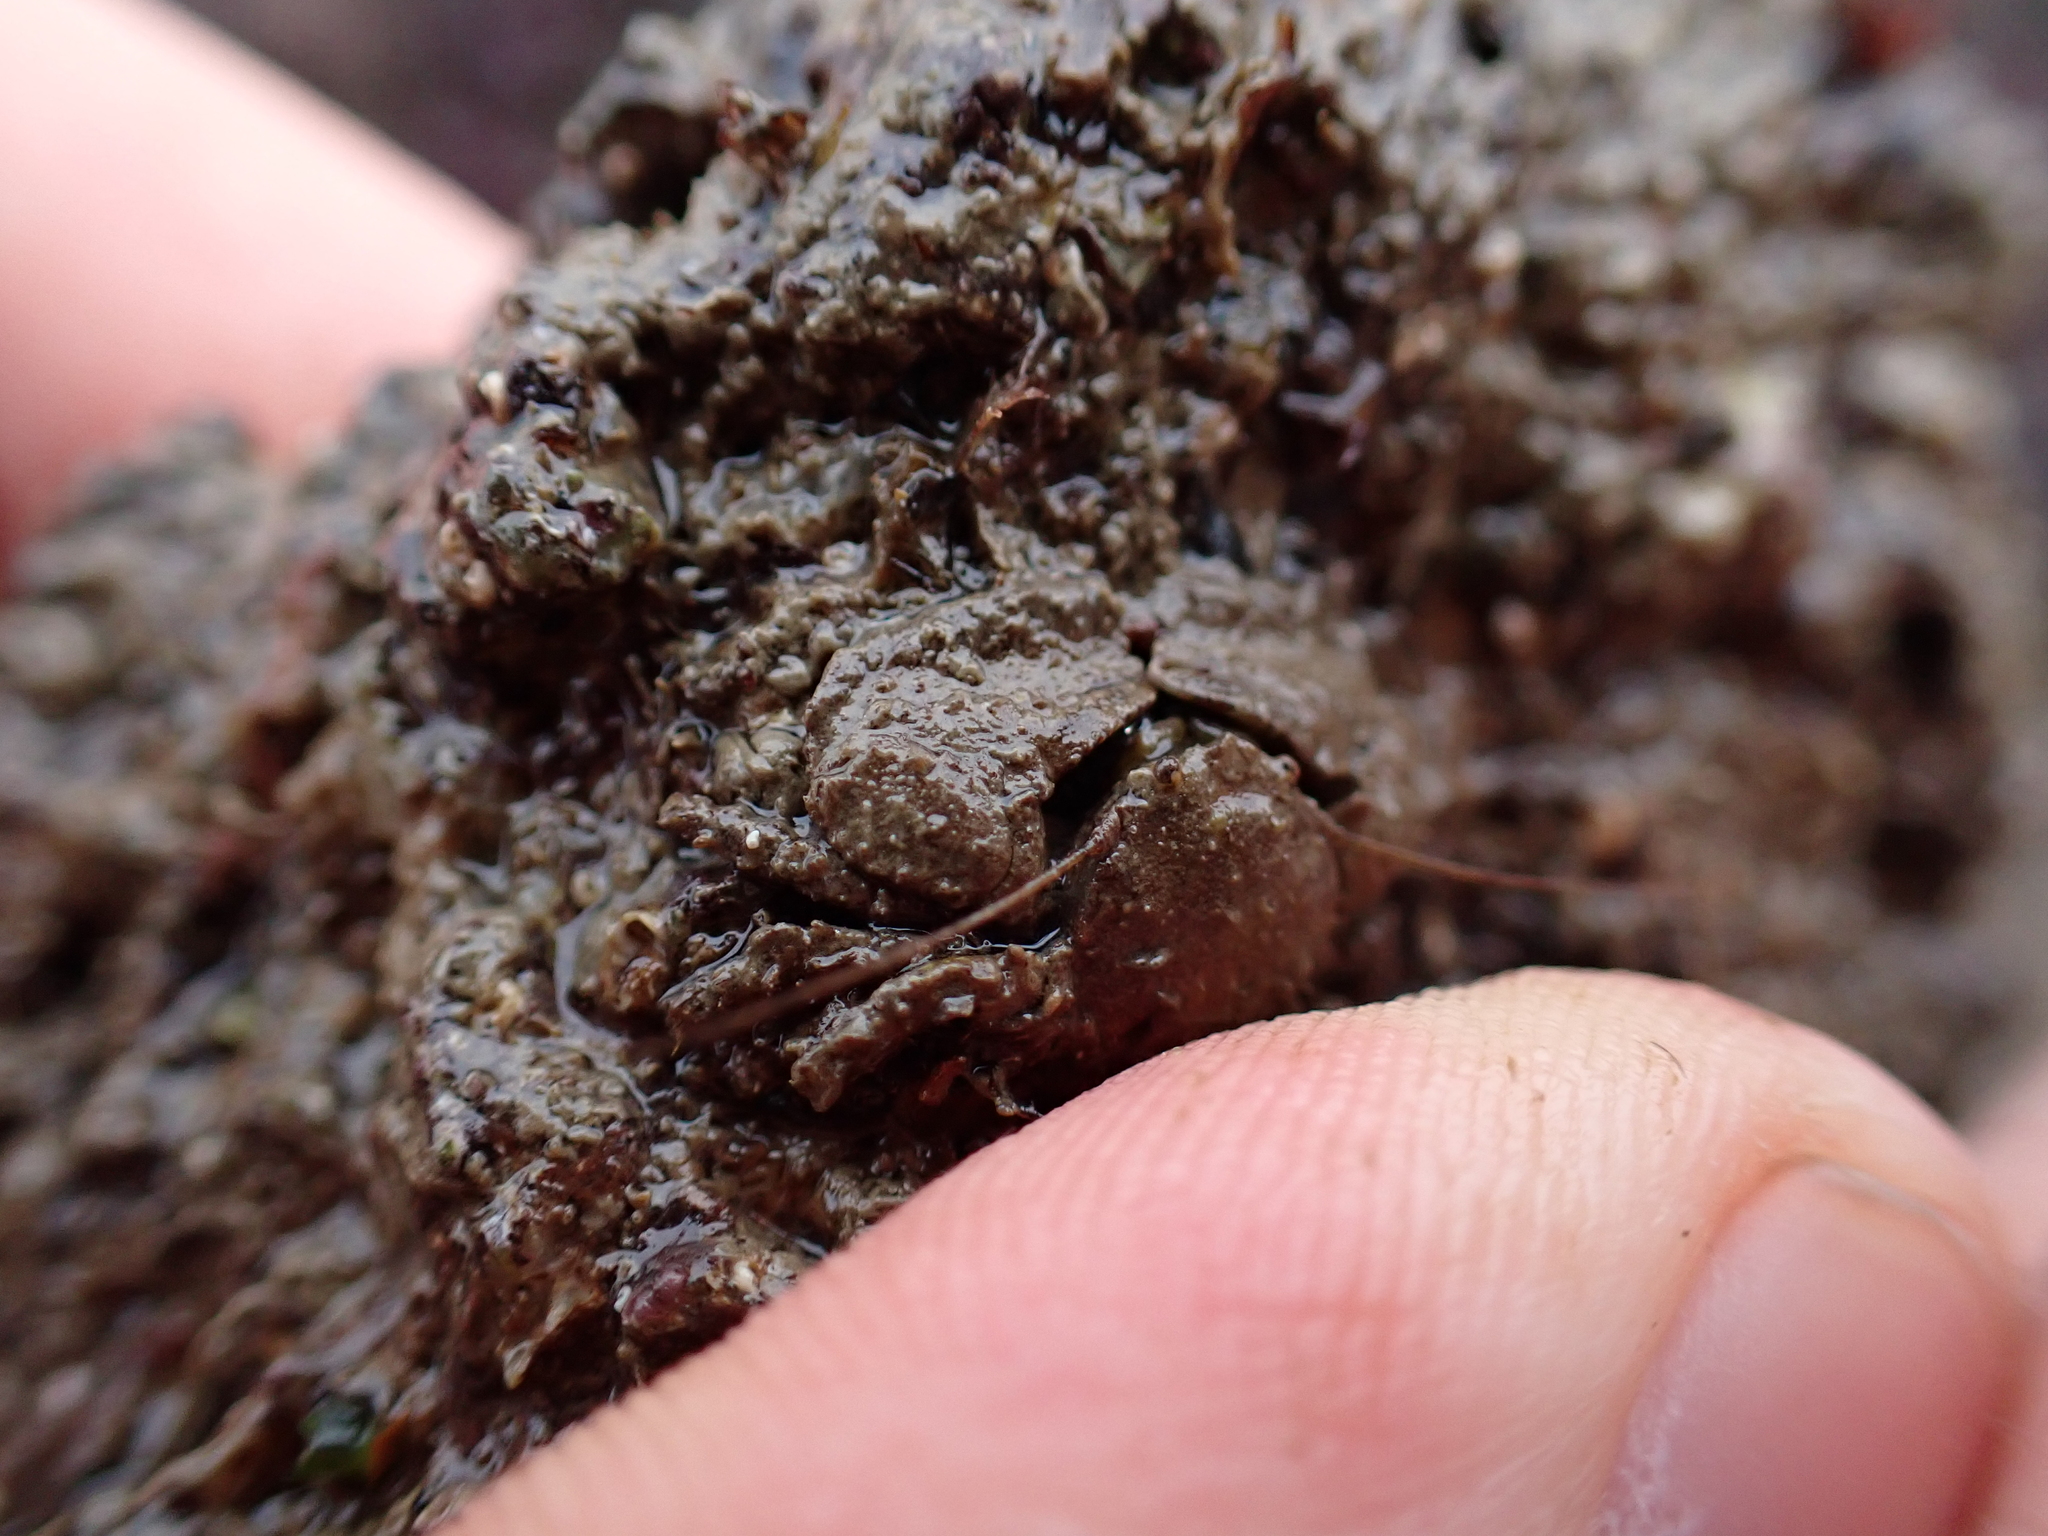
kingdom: Animalia
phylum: Arthropoda
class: Malacostraca
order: Decapoda
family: Porcellanidae
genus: Porcellana
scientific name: Porcellana platycheles
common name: Porcelain crab
